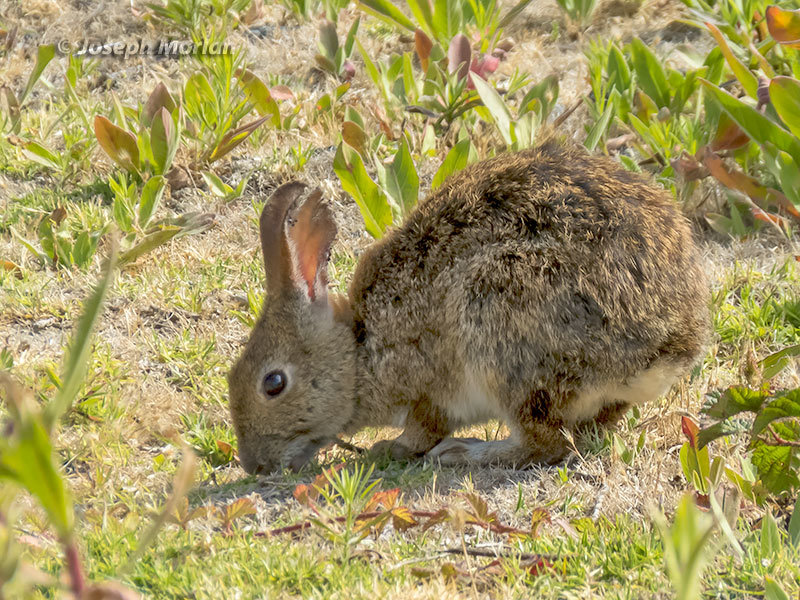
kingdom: Animalia
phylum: Chordata
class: Mammalia
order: Lagomorpha
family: Leporidae
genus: Sylvilagus
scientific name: Sylvilagus bachmani
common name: Brush rabbit
